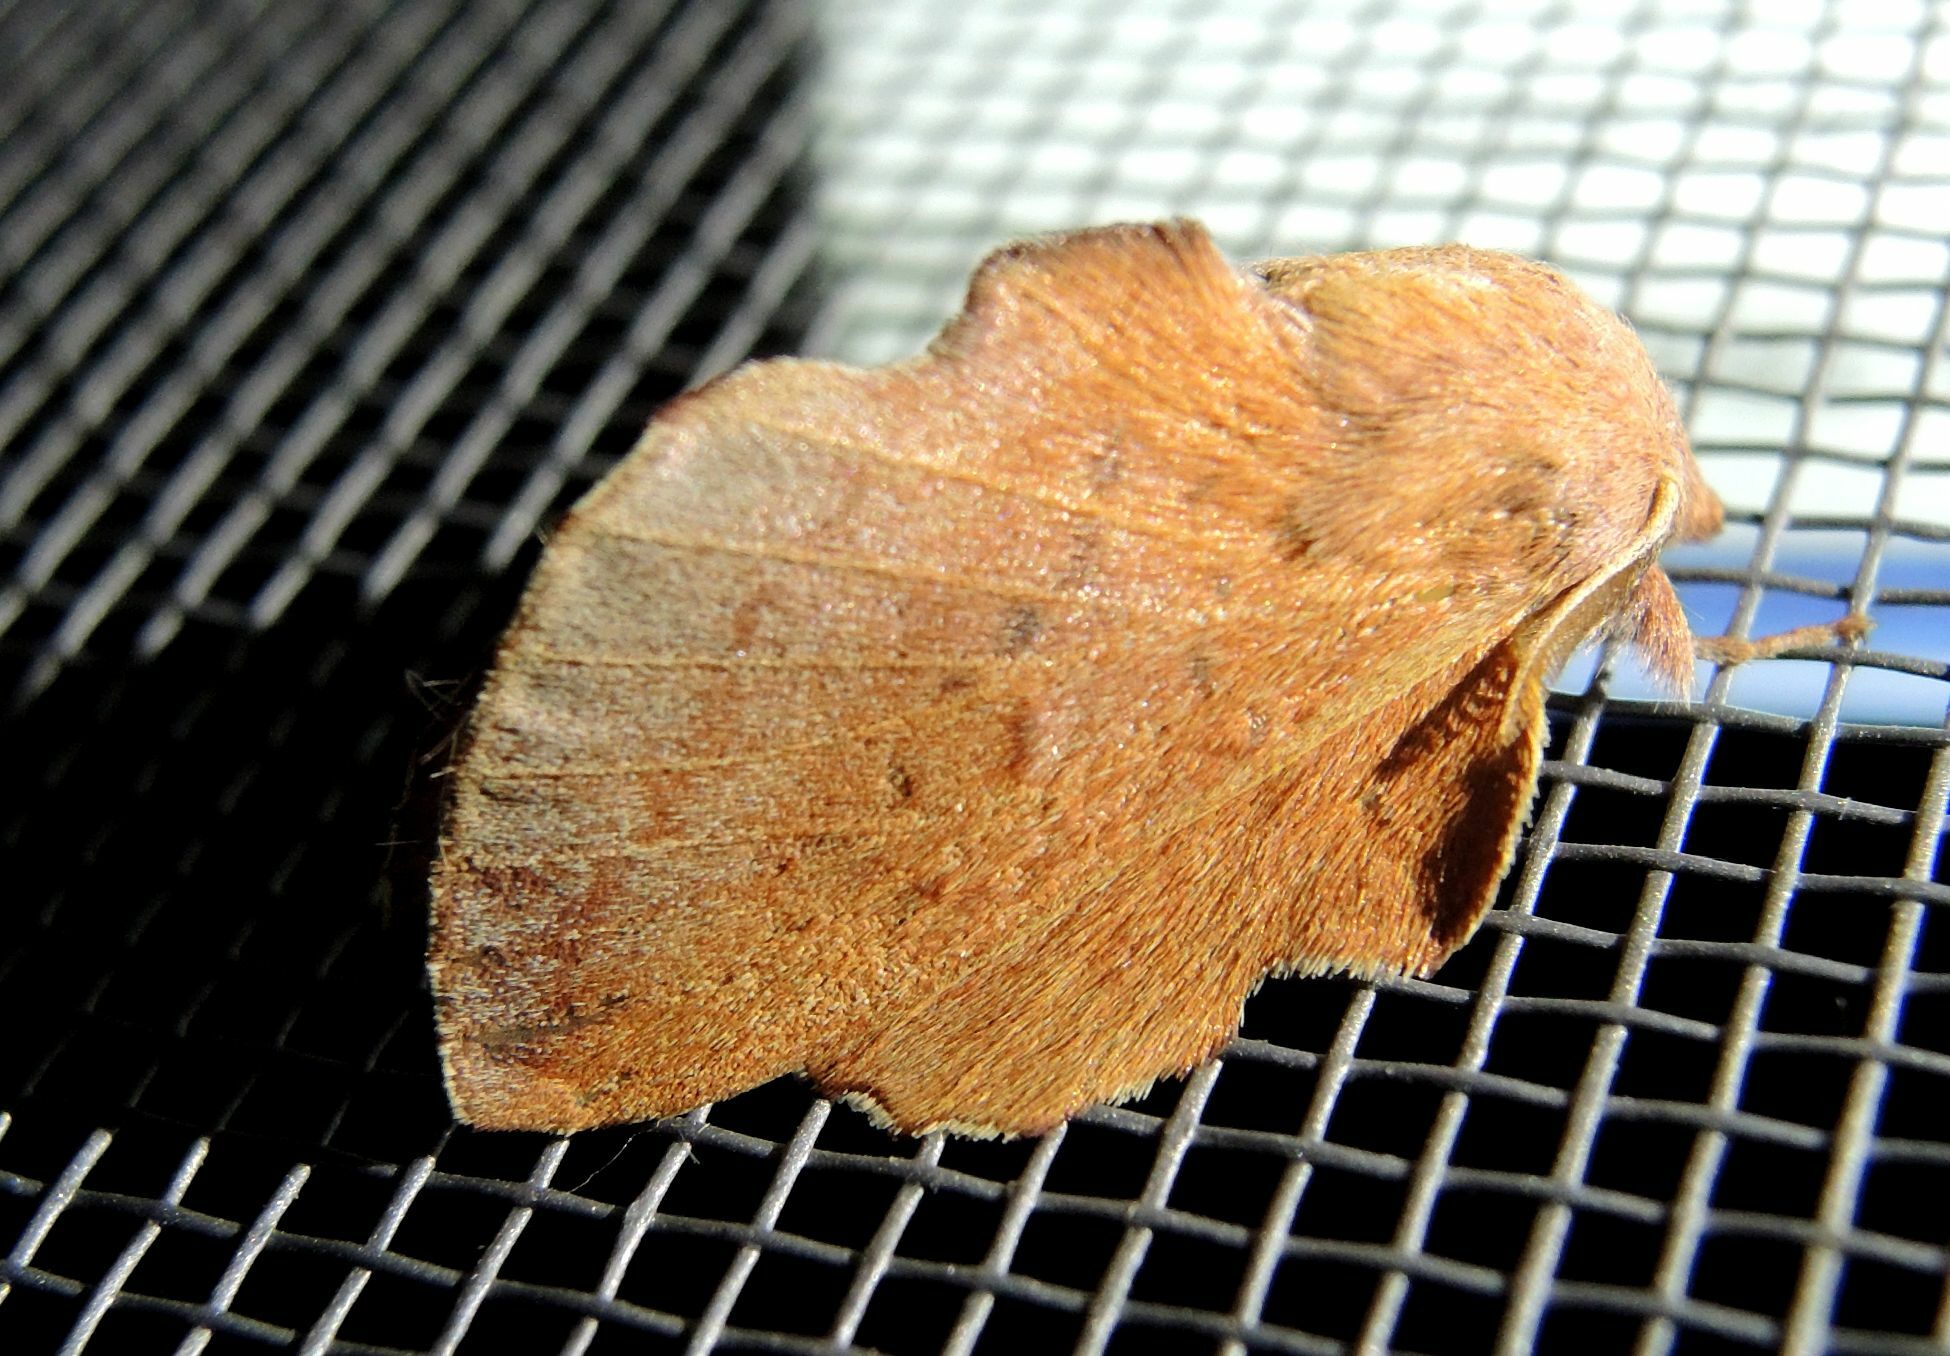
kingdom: Animalia
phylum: Arthropoda
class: Insecta
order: Lepidoptera
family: Lasiocampidae
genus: Phyllodesma
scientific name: Phyllodesma tremulifolia
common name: Aspen lappet
